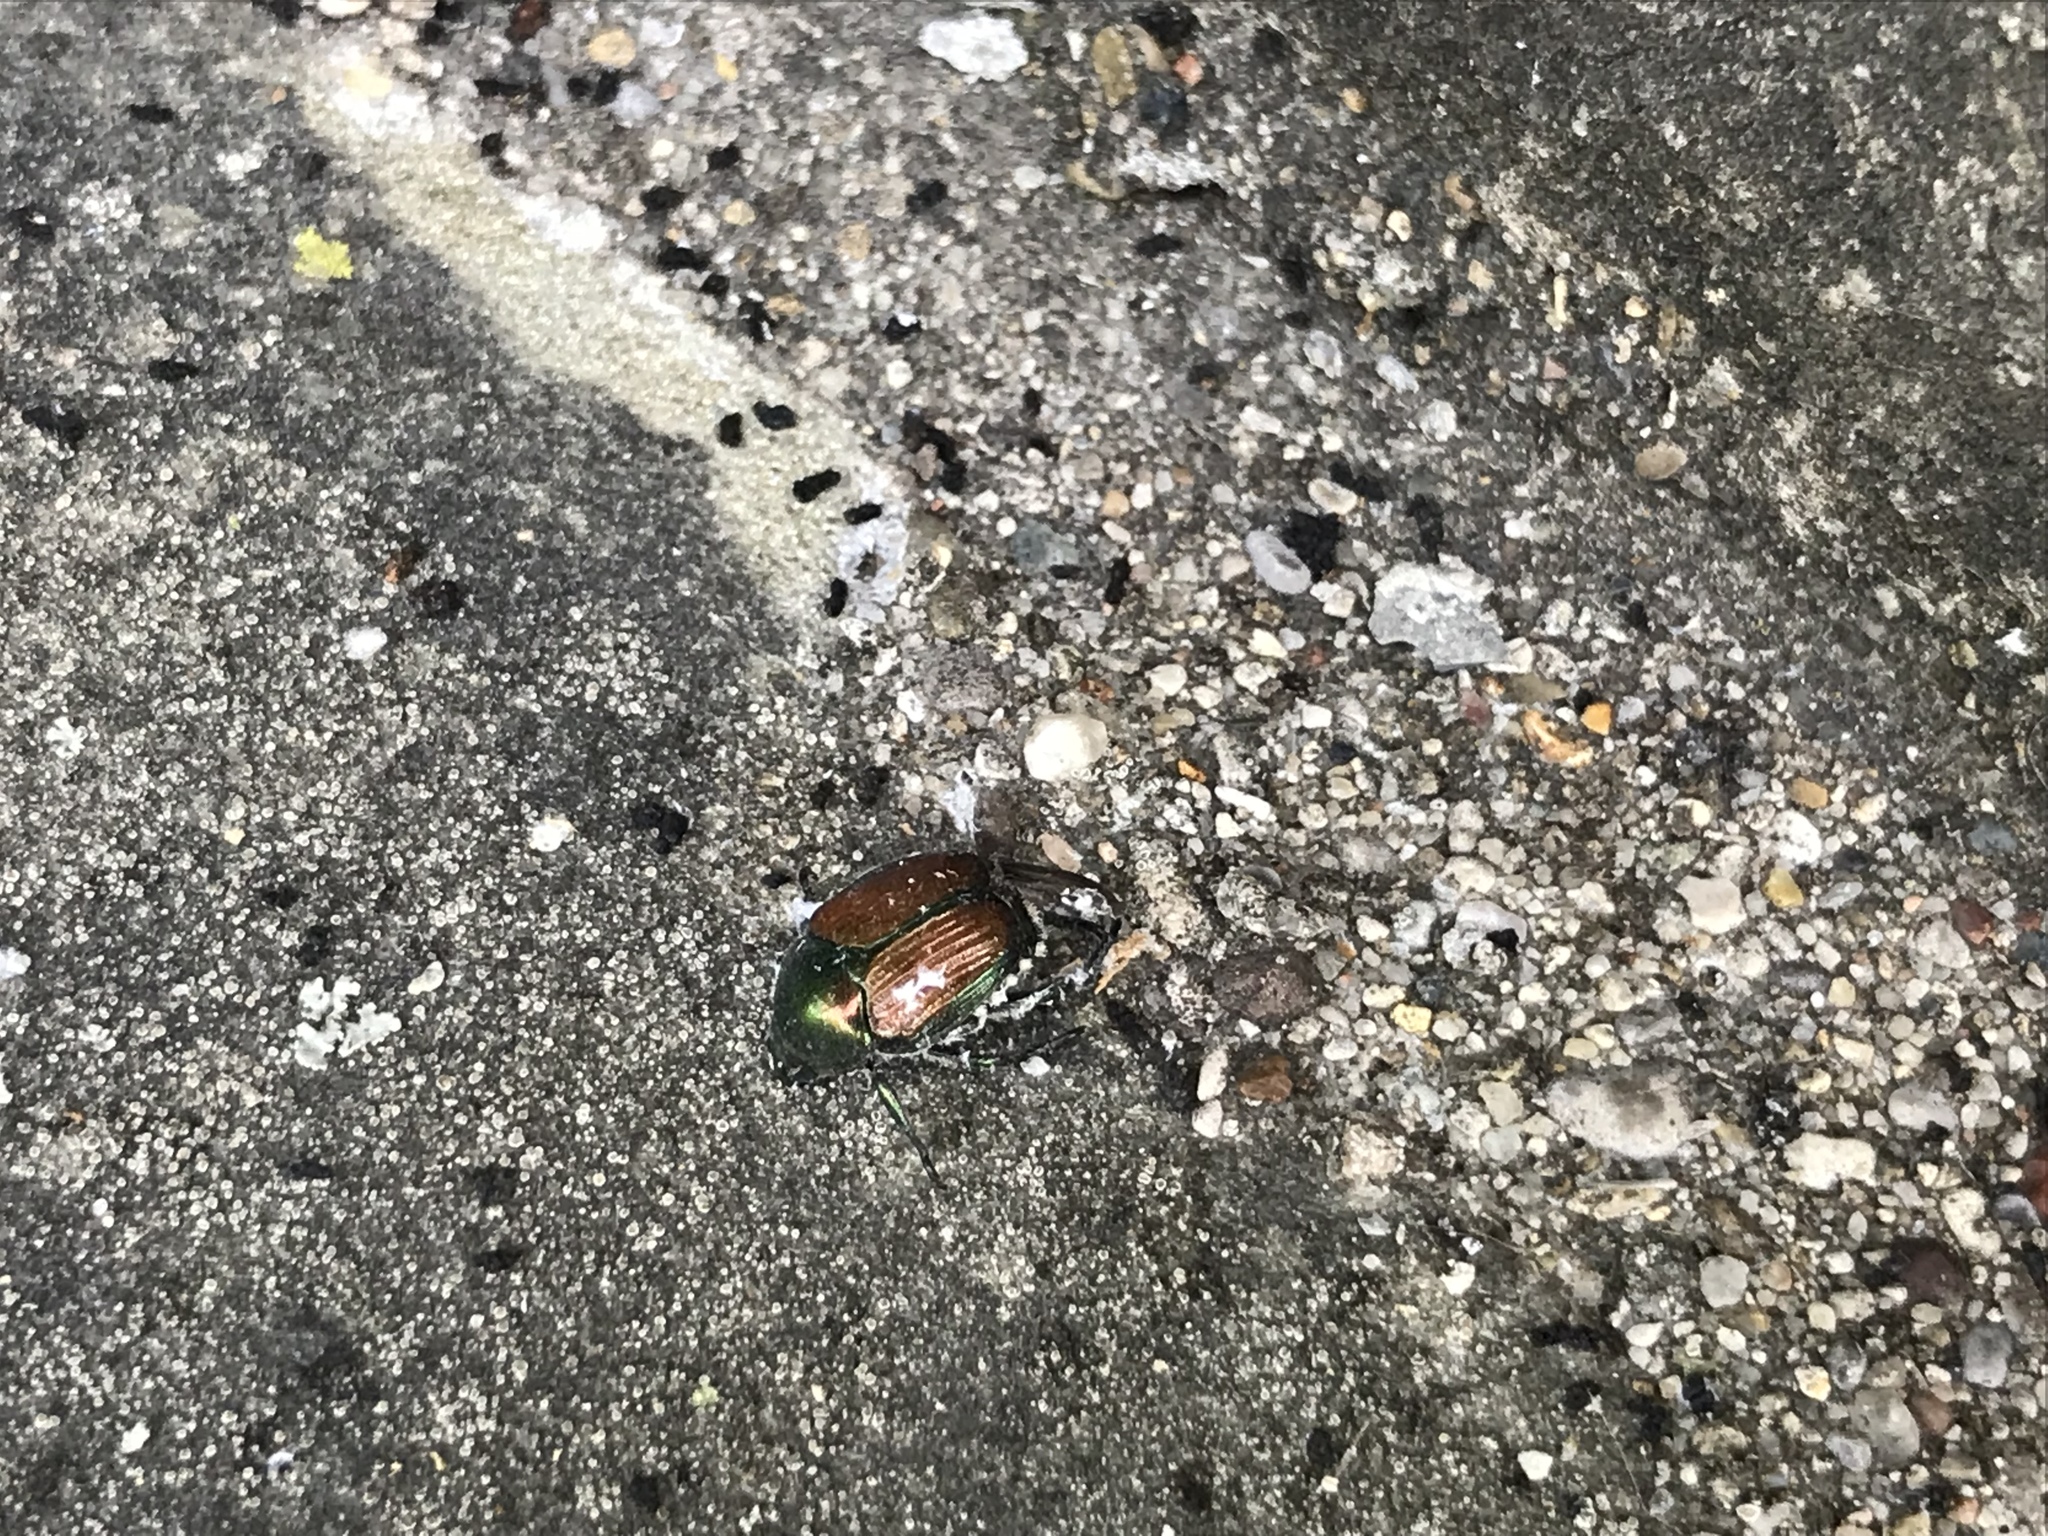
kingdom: Animalia
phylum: Arthropoda
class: Insecta
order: Coleoptera
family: Scarabaeidae
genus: Popillia
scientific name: Popillia japonica
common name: Japanese beetle
